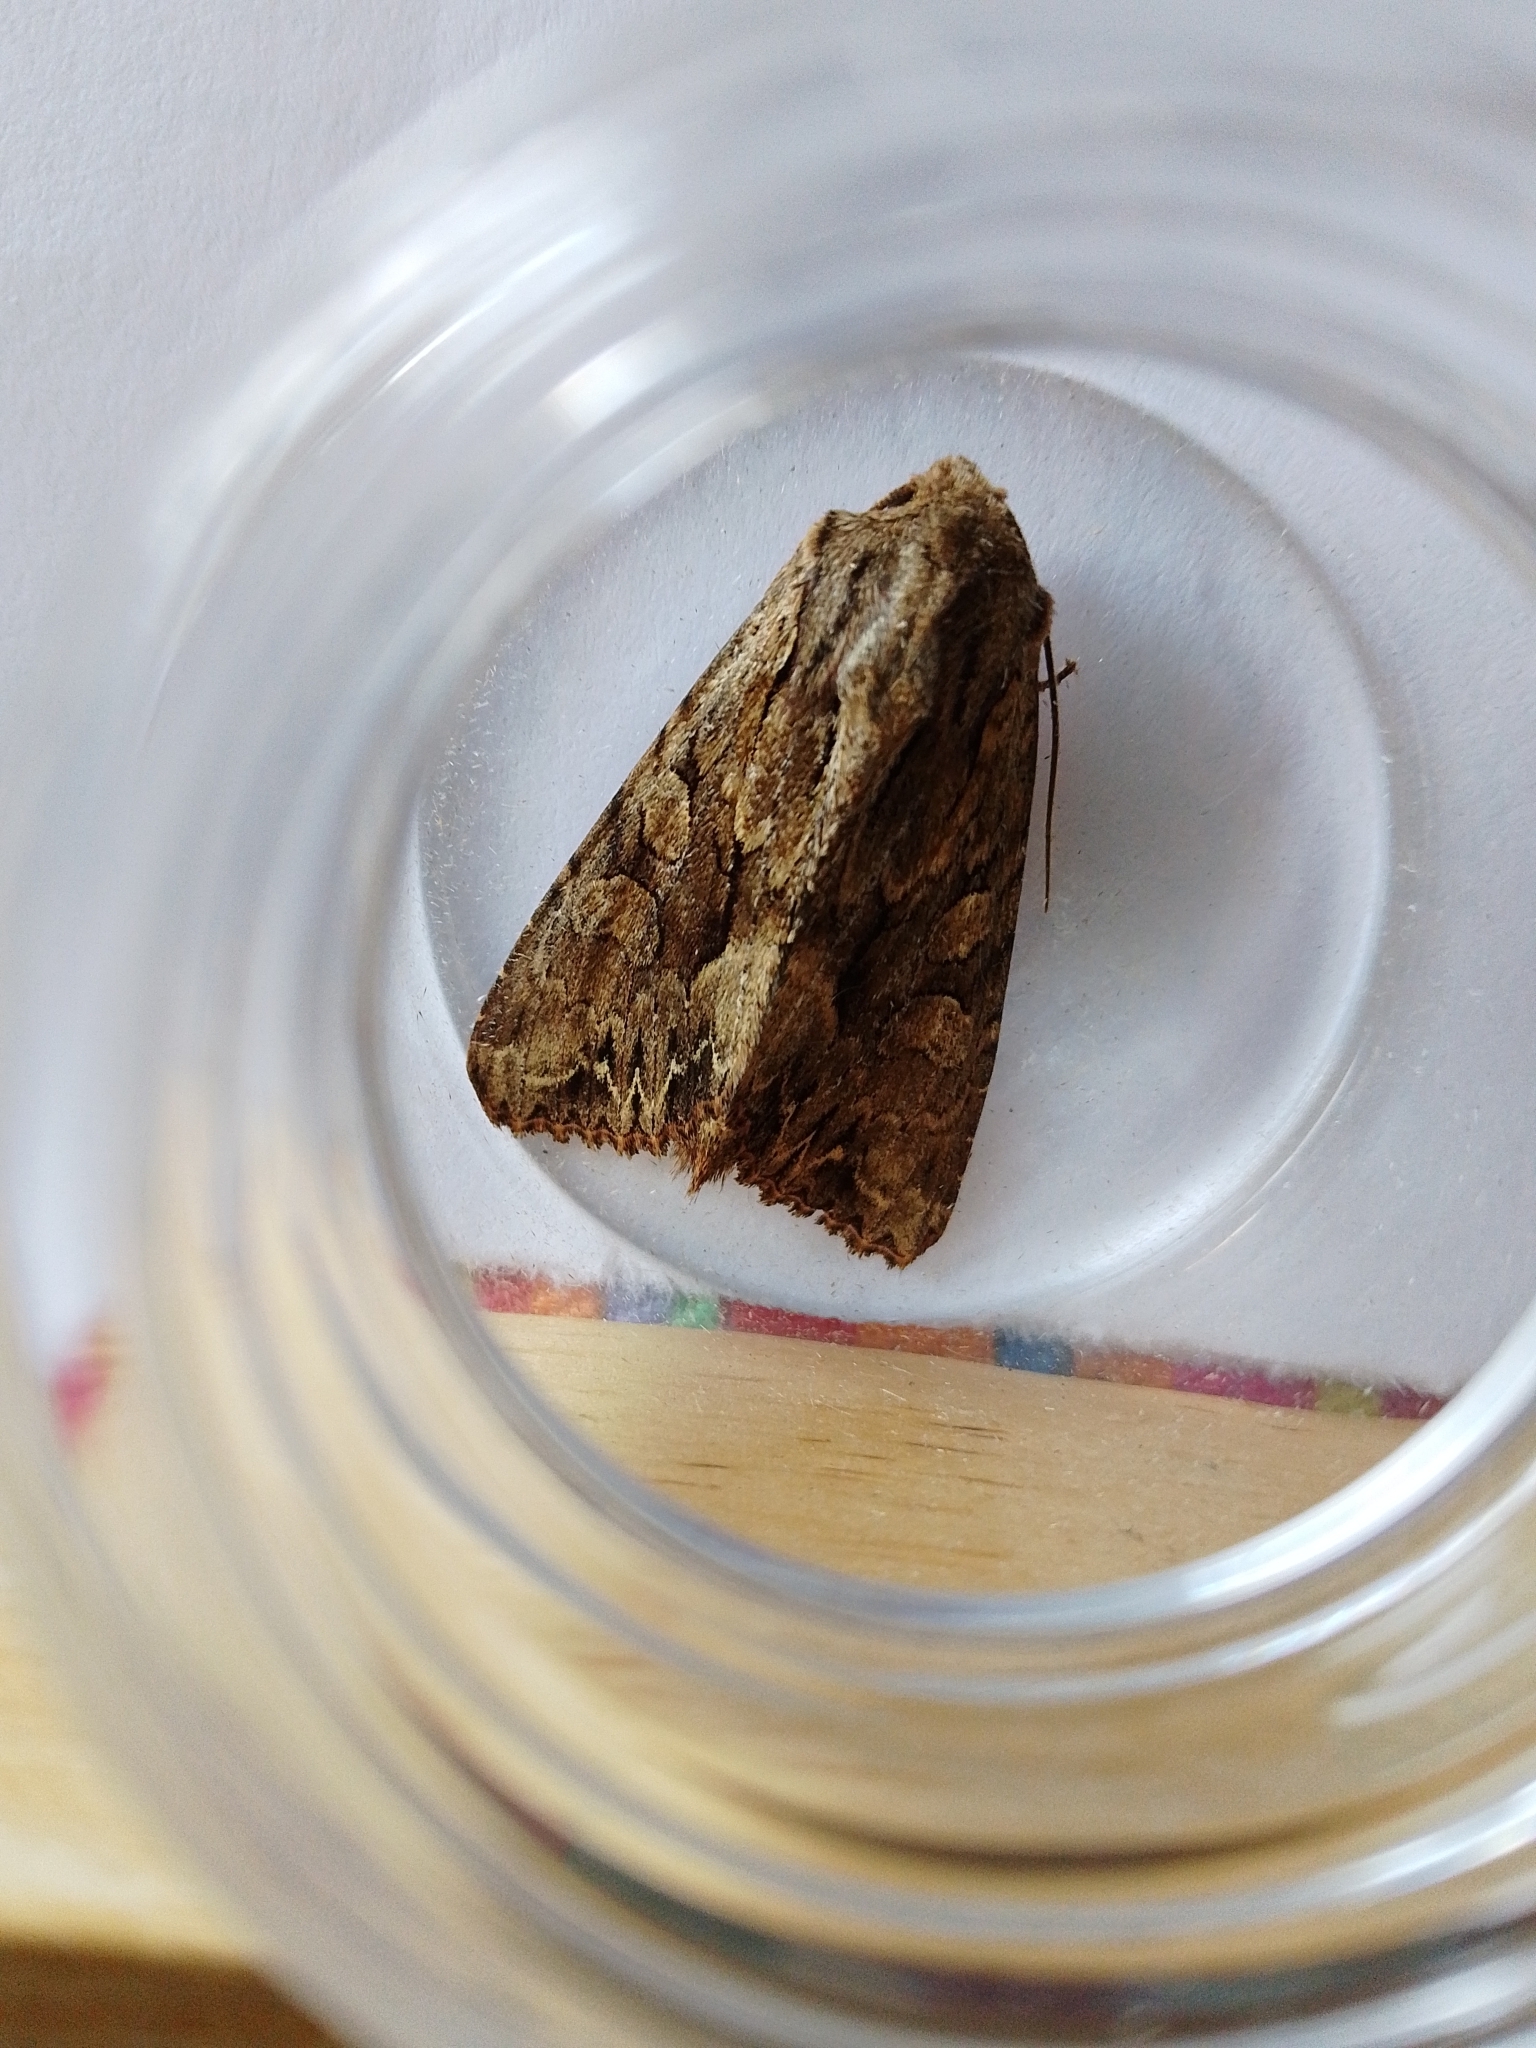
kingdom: Animalia
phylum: Arthropoda
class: Insecta
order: Lepidoptera
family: Noctuidae
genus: Apamea
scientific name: Apamea monoglypha
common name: Dark arches
